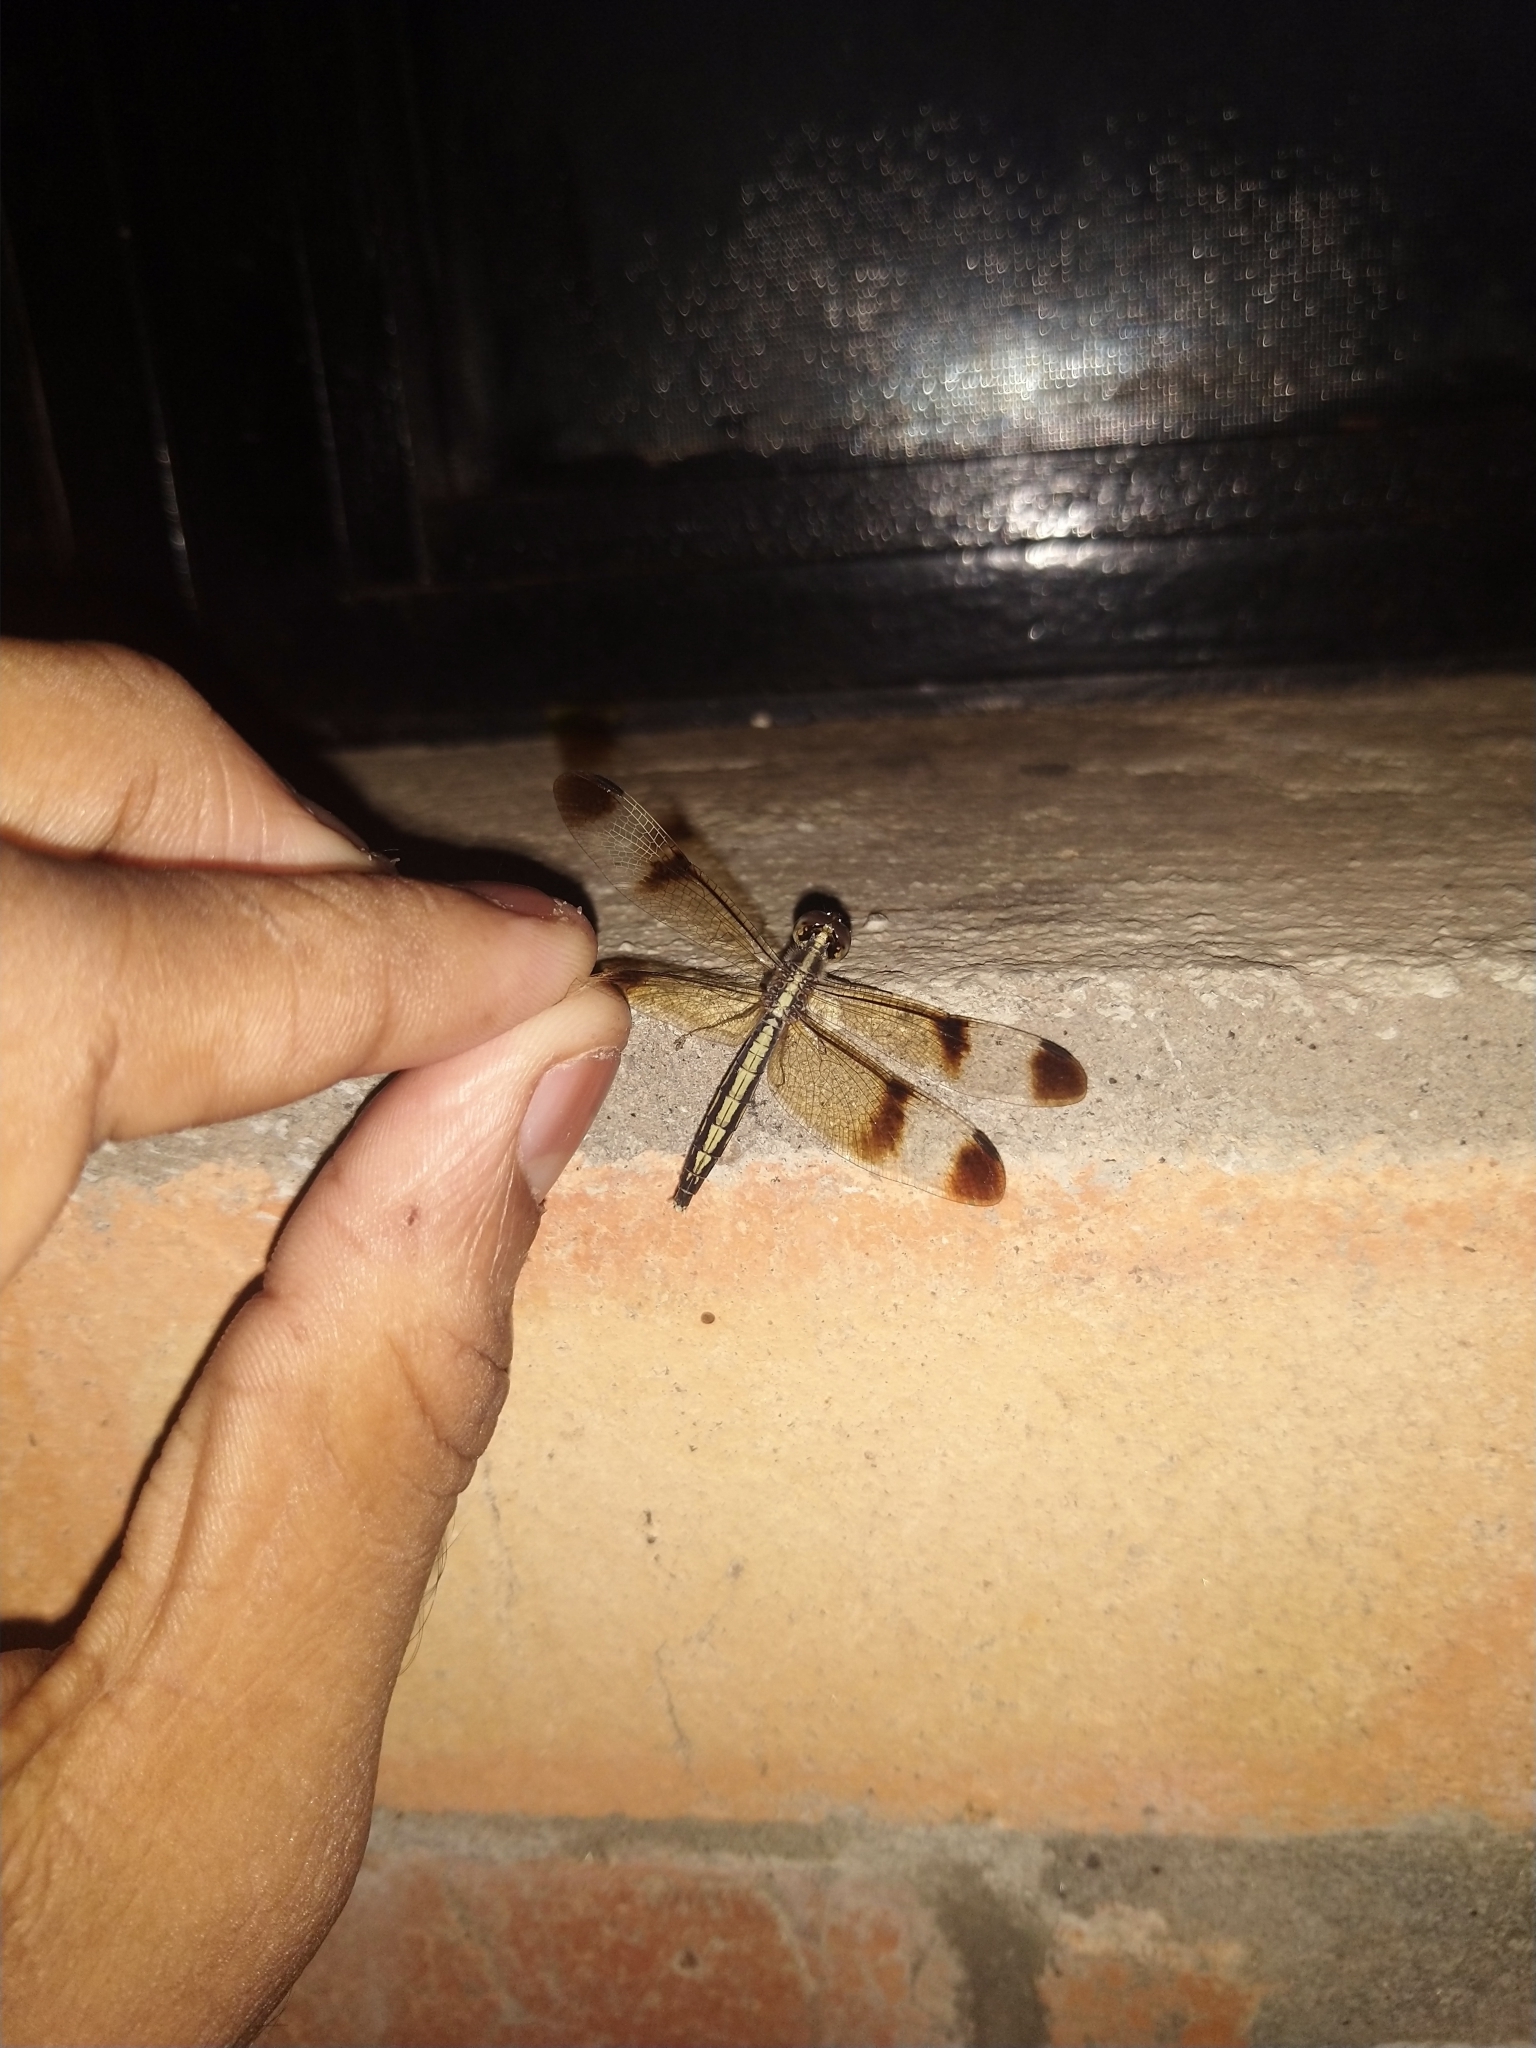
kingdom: Animalia
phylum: Arthropoda
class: Insecta
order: Odonata
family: Libellulidae
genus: Neurothemis
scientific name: Neurothemis tullia
